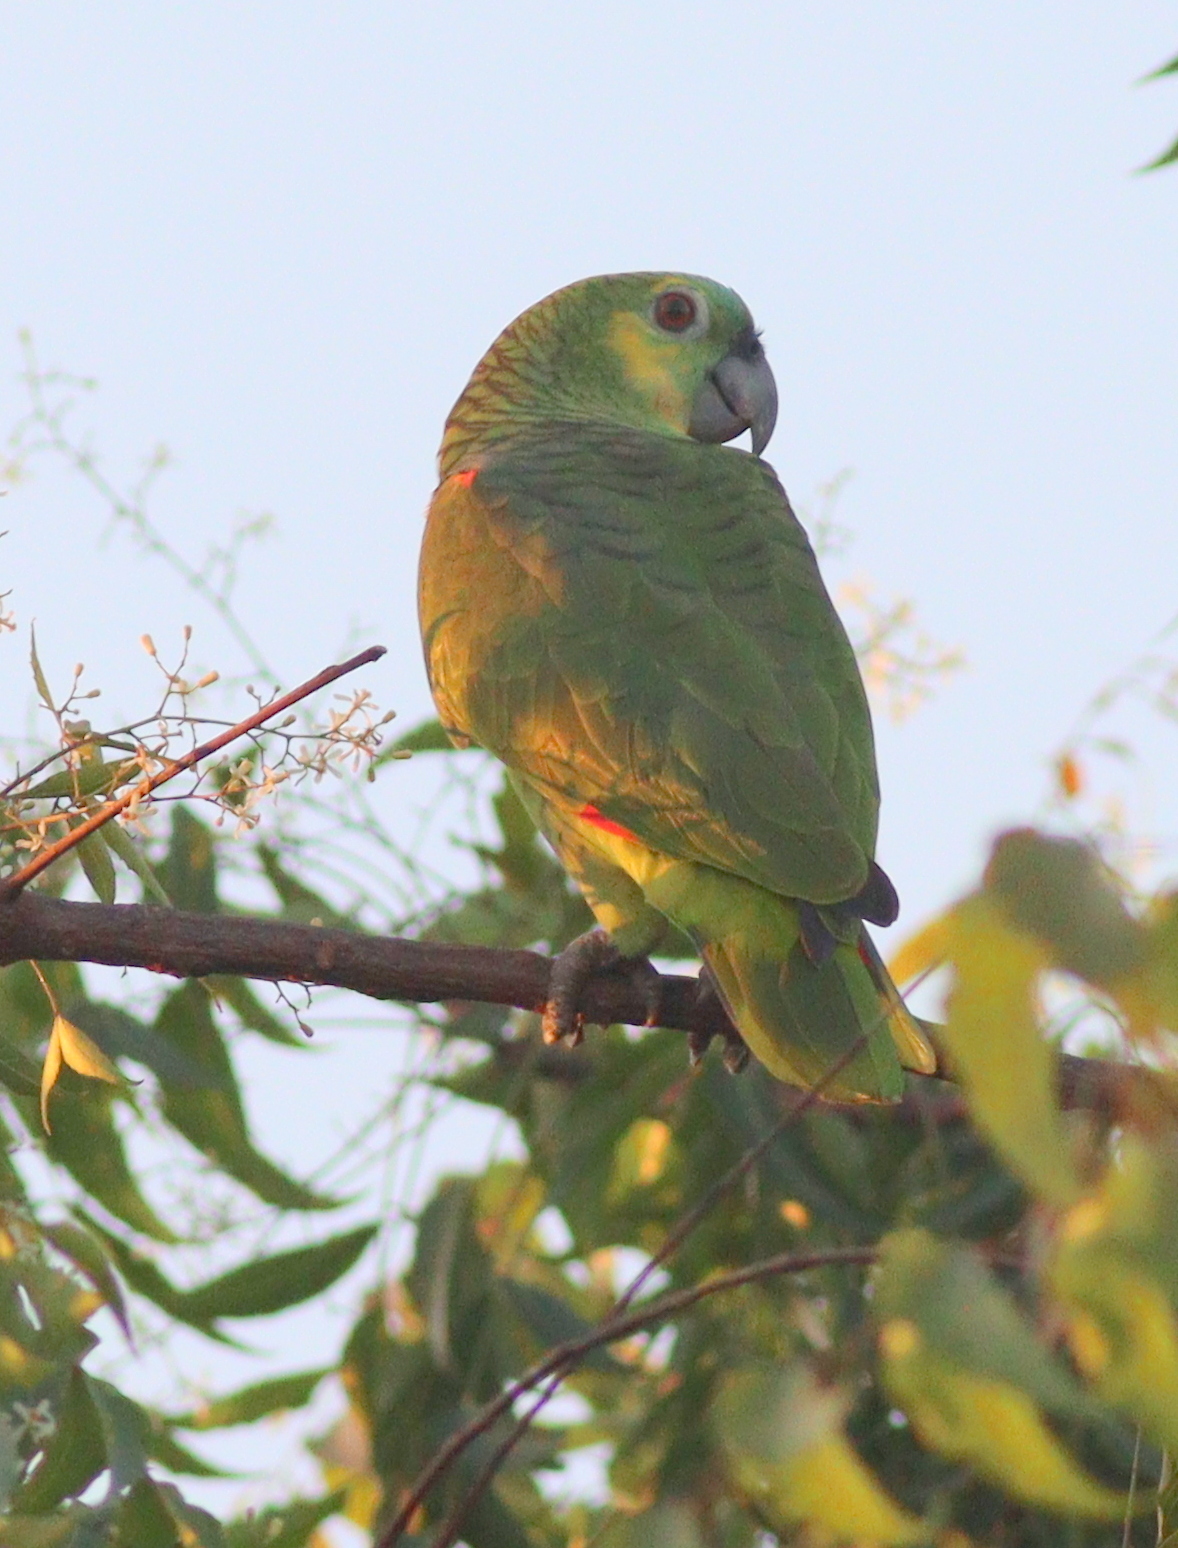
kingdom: Animalia
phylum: Chordata
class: Aves
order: Psittaciformes
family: Psittacidae
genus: Amazona
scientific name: Amazona aestiva
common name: Turquoise-fronted amazon
